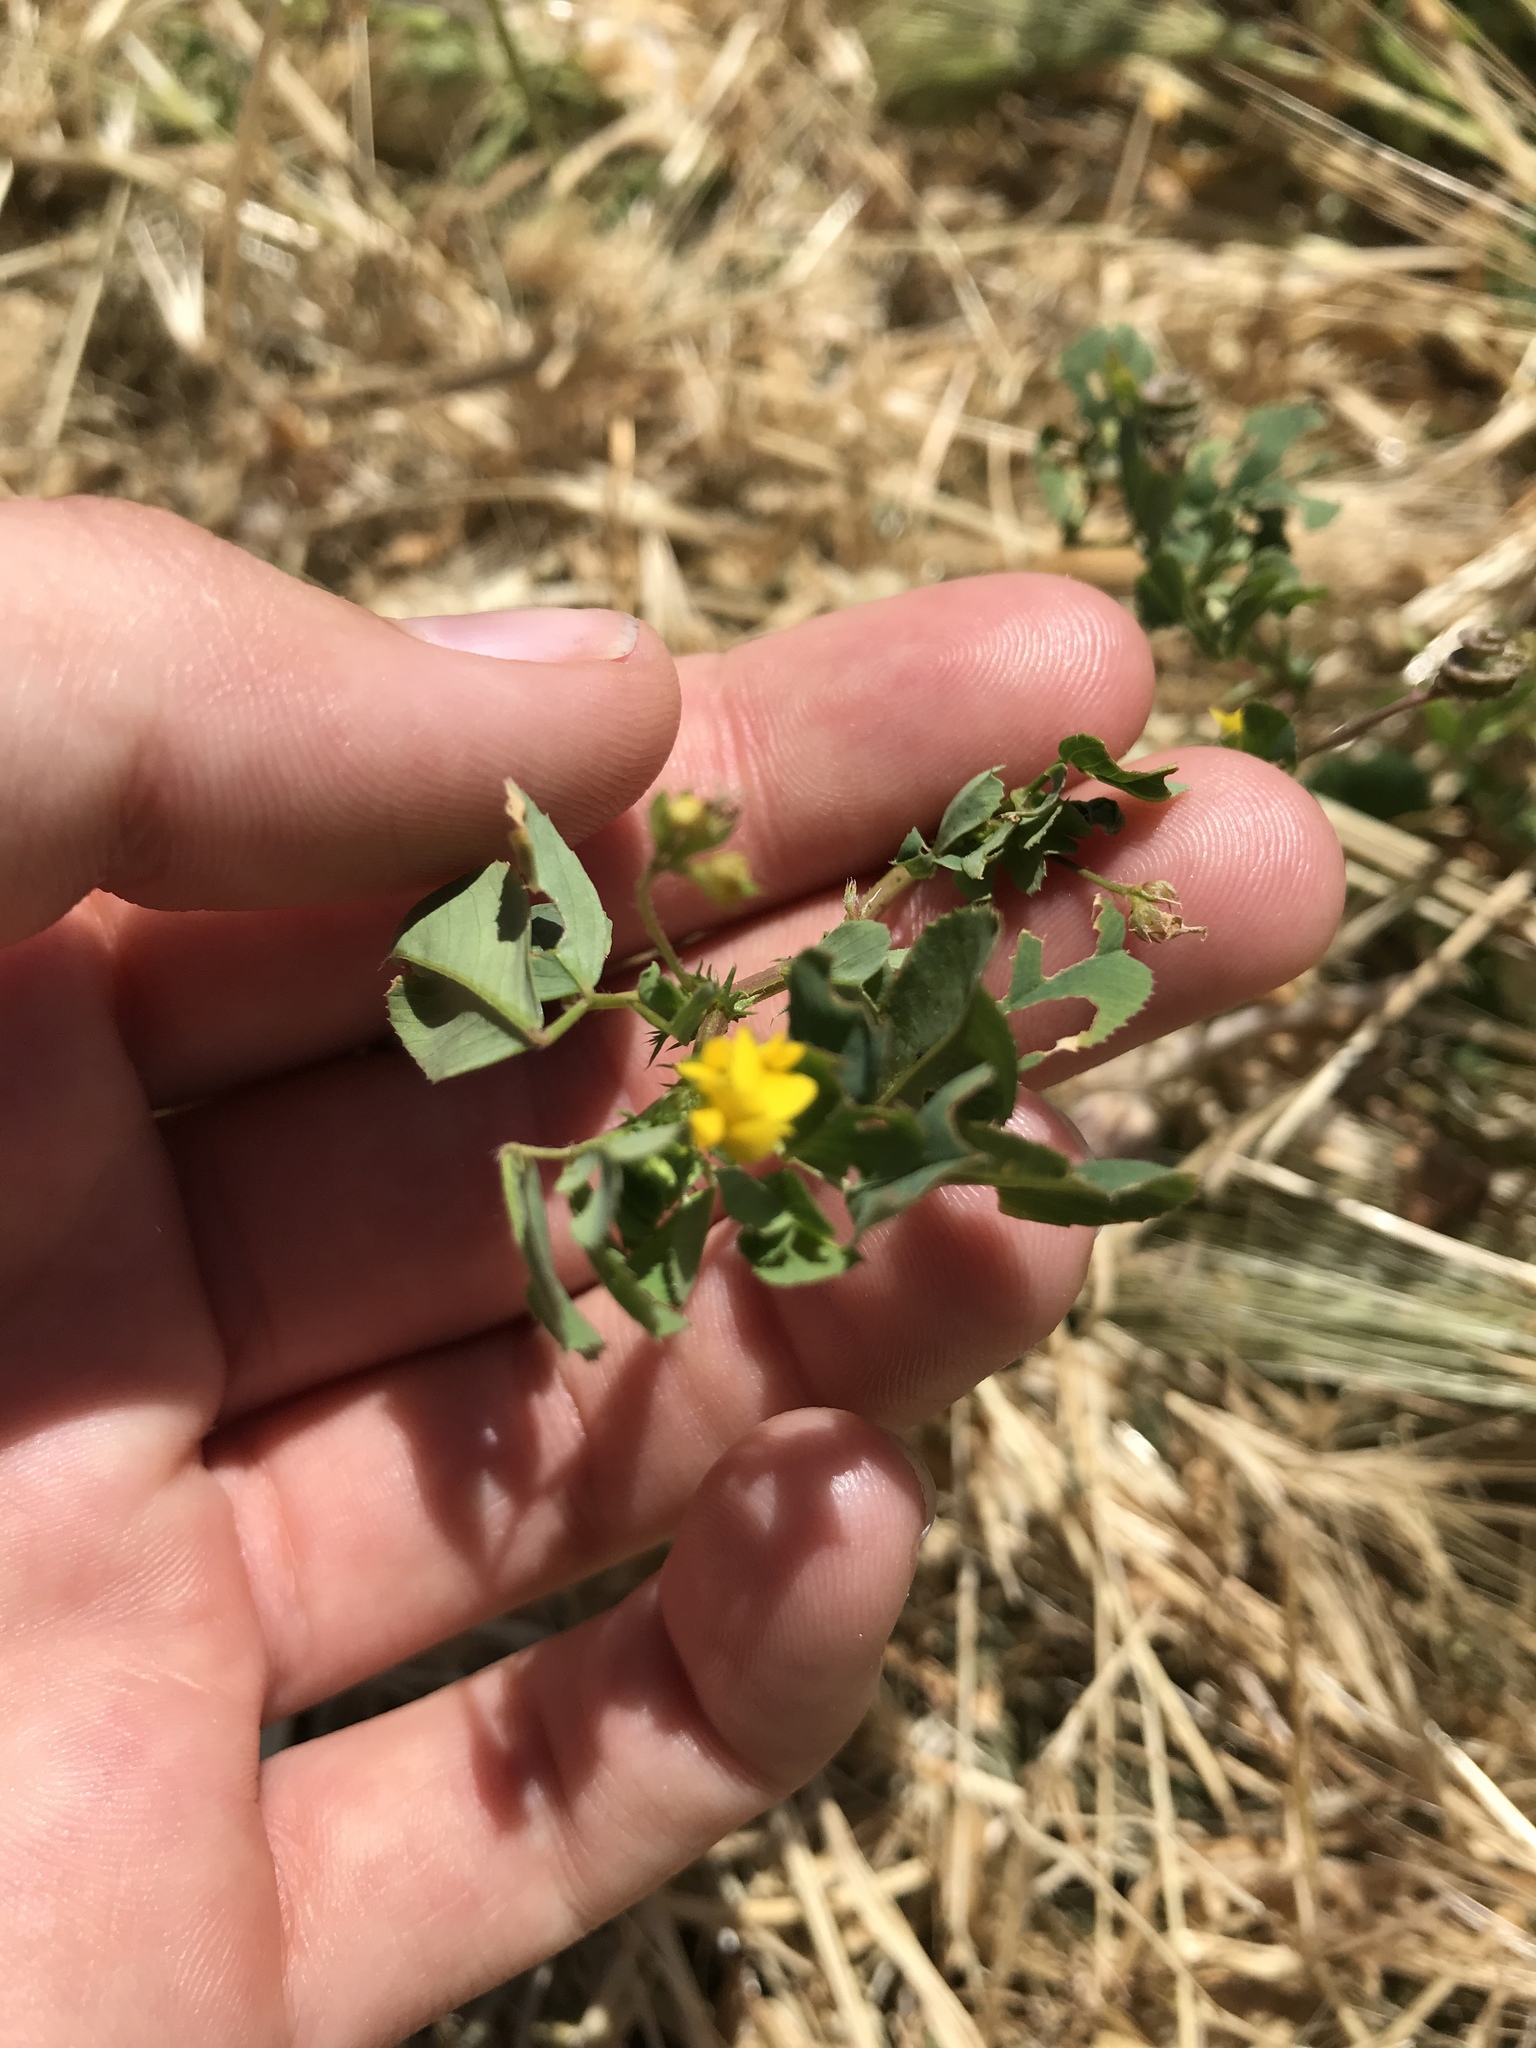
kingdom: Plantae
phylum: Tracheophyta
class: Magnoliopsida
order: Fabales
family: Fabaceae
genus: Medicago
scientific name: Medicago polymorpha
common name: Burclover
